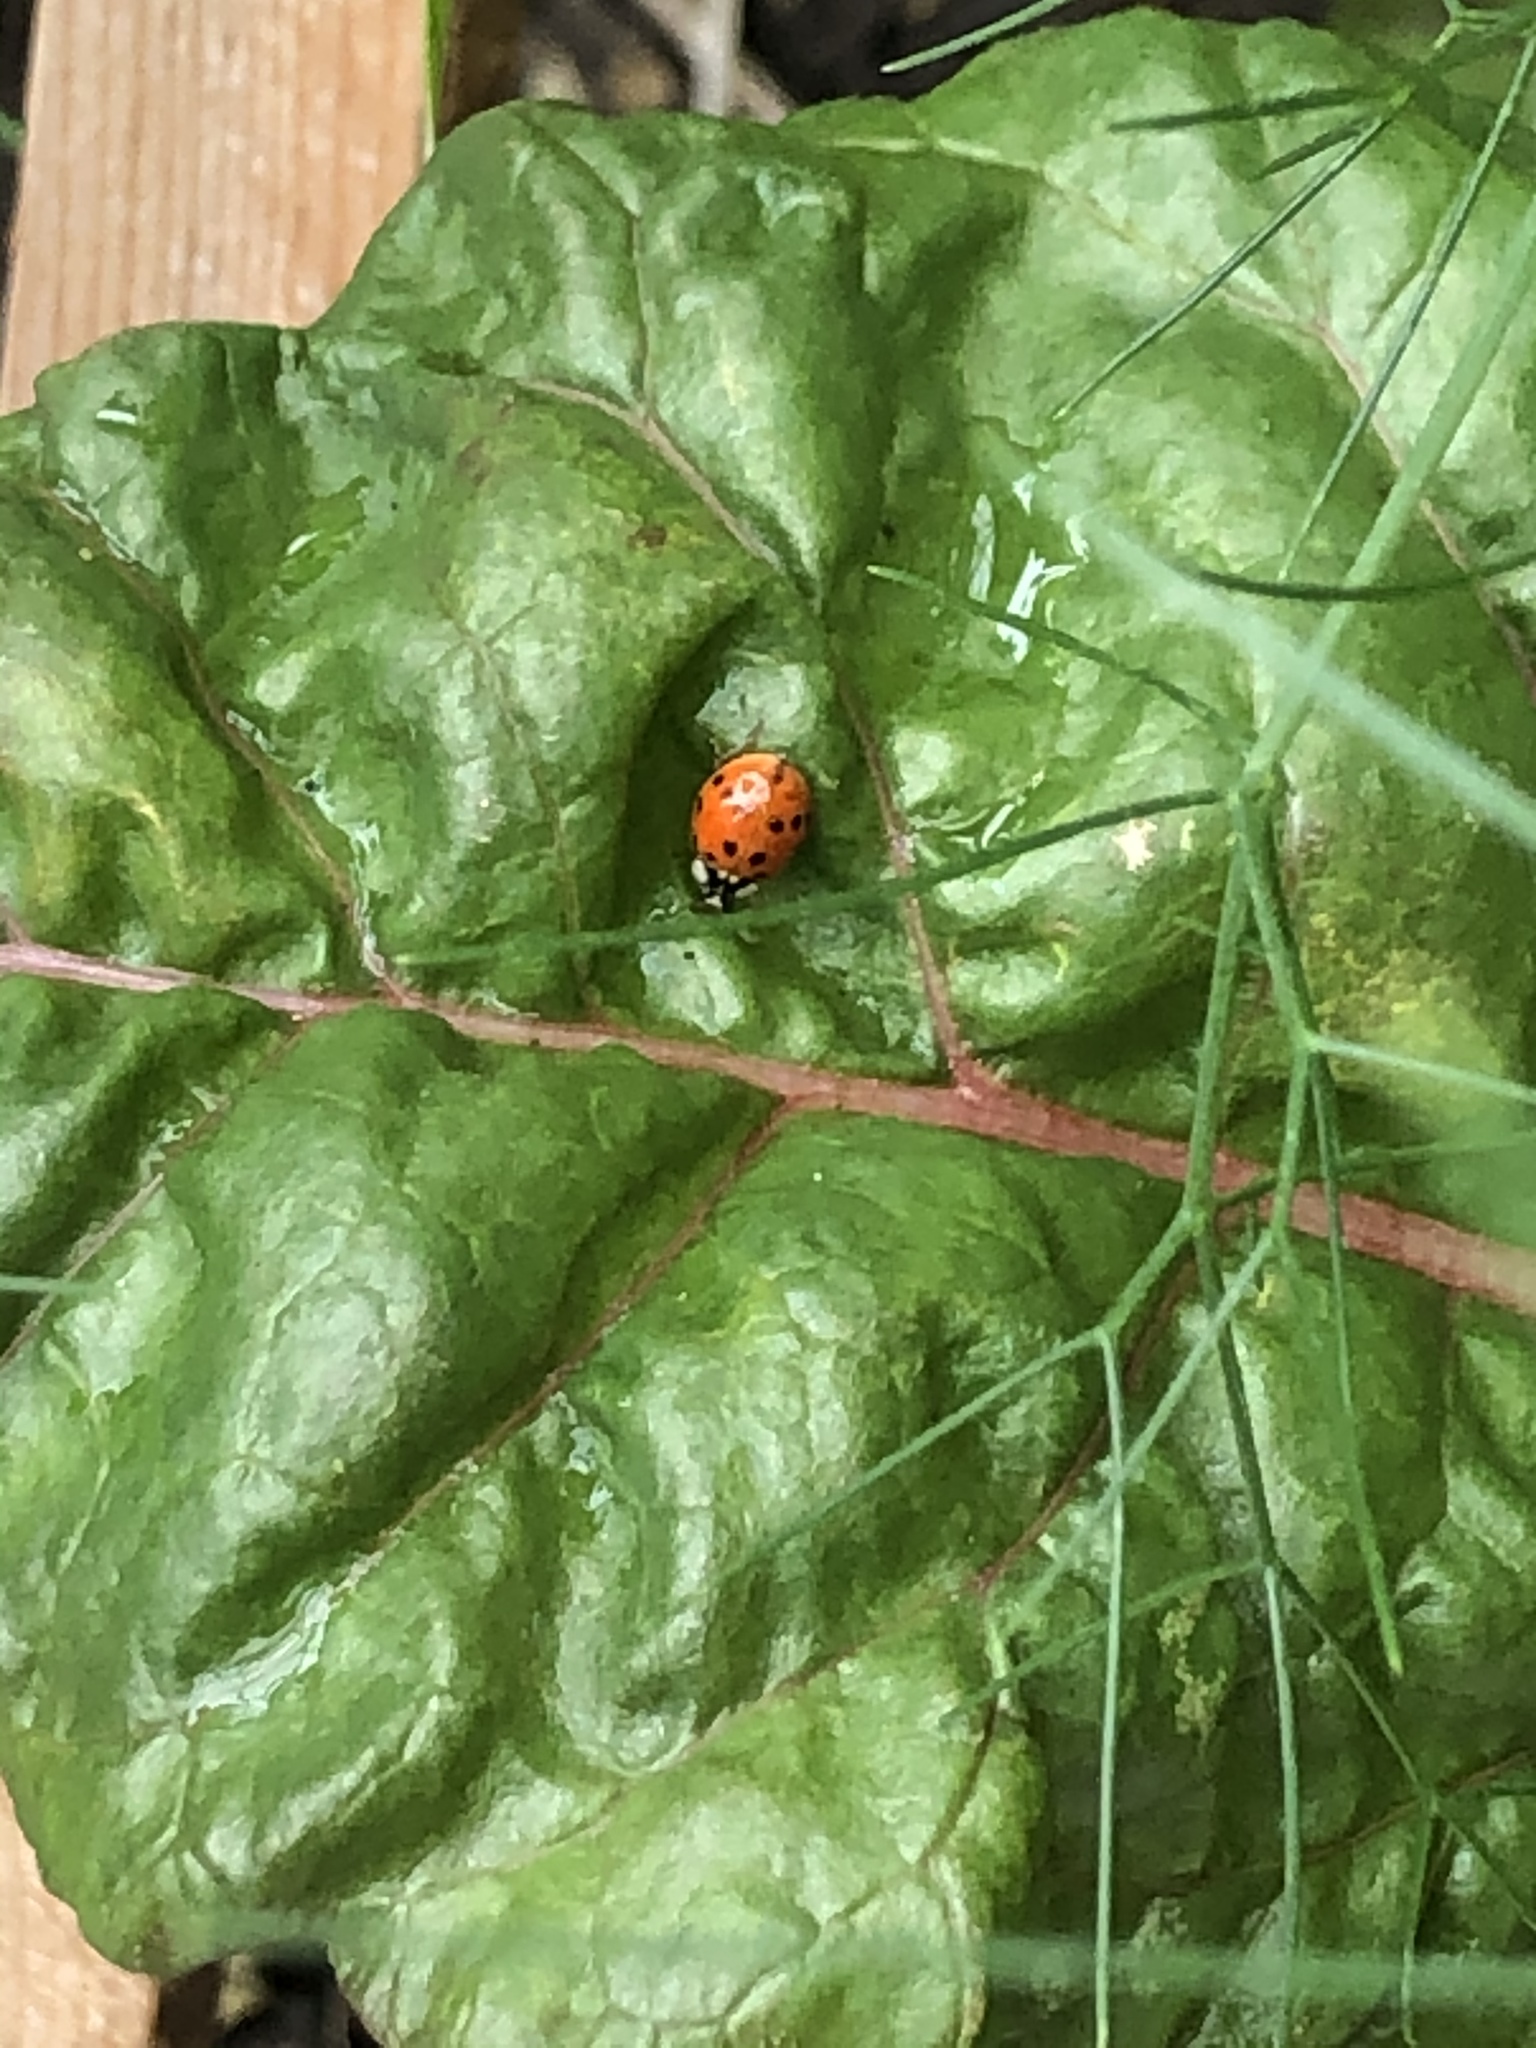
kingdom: Animalia
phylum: Arthropoda
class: Insecta
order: Coleoptera
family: Coccinellidae
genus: Harmonia
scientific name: Harmonia axyridis
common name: Harlequin ladybird
